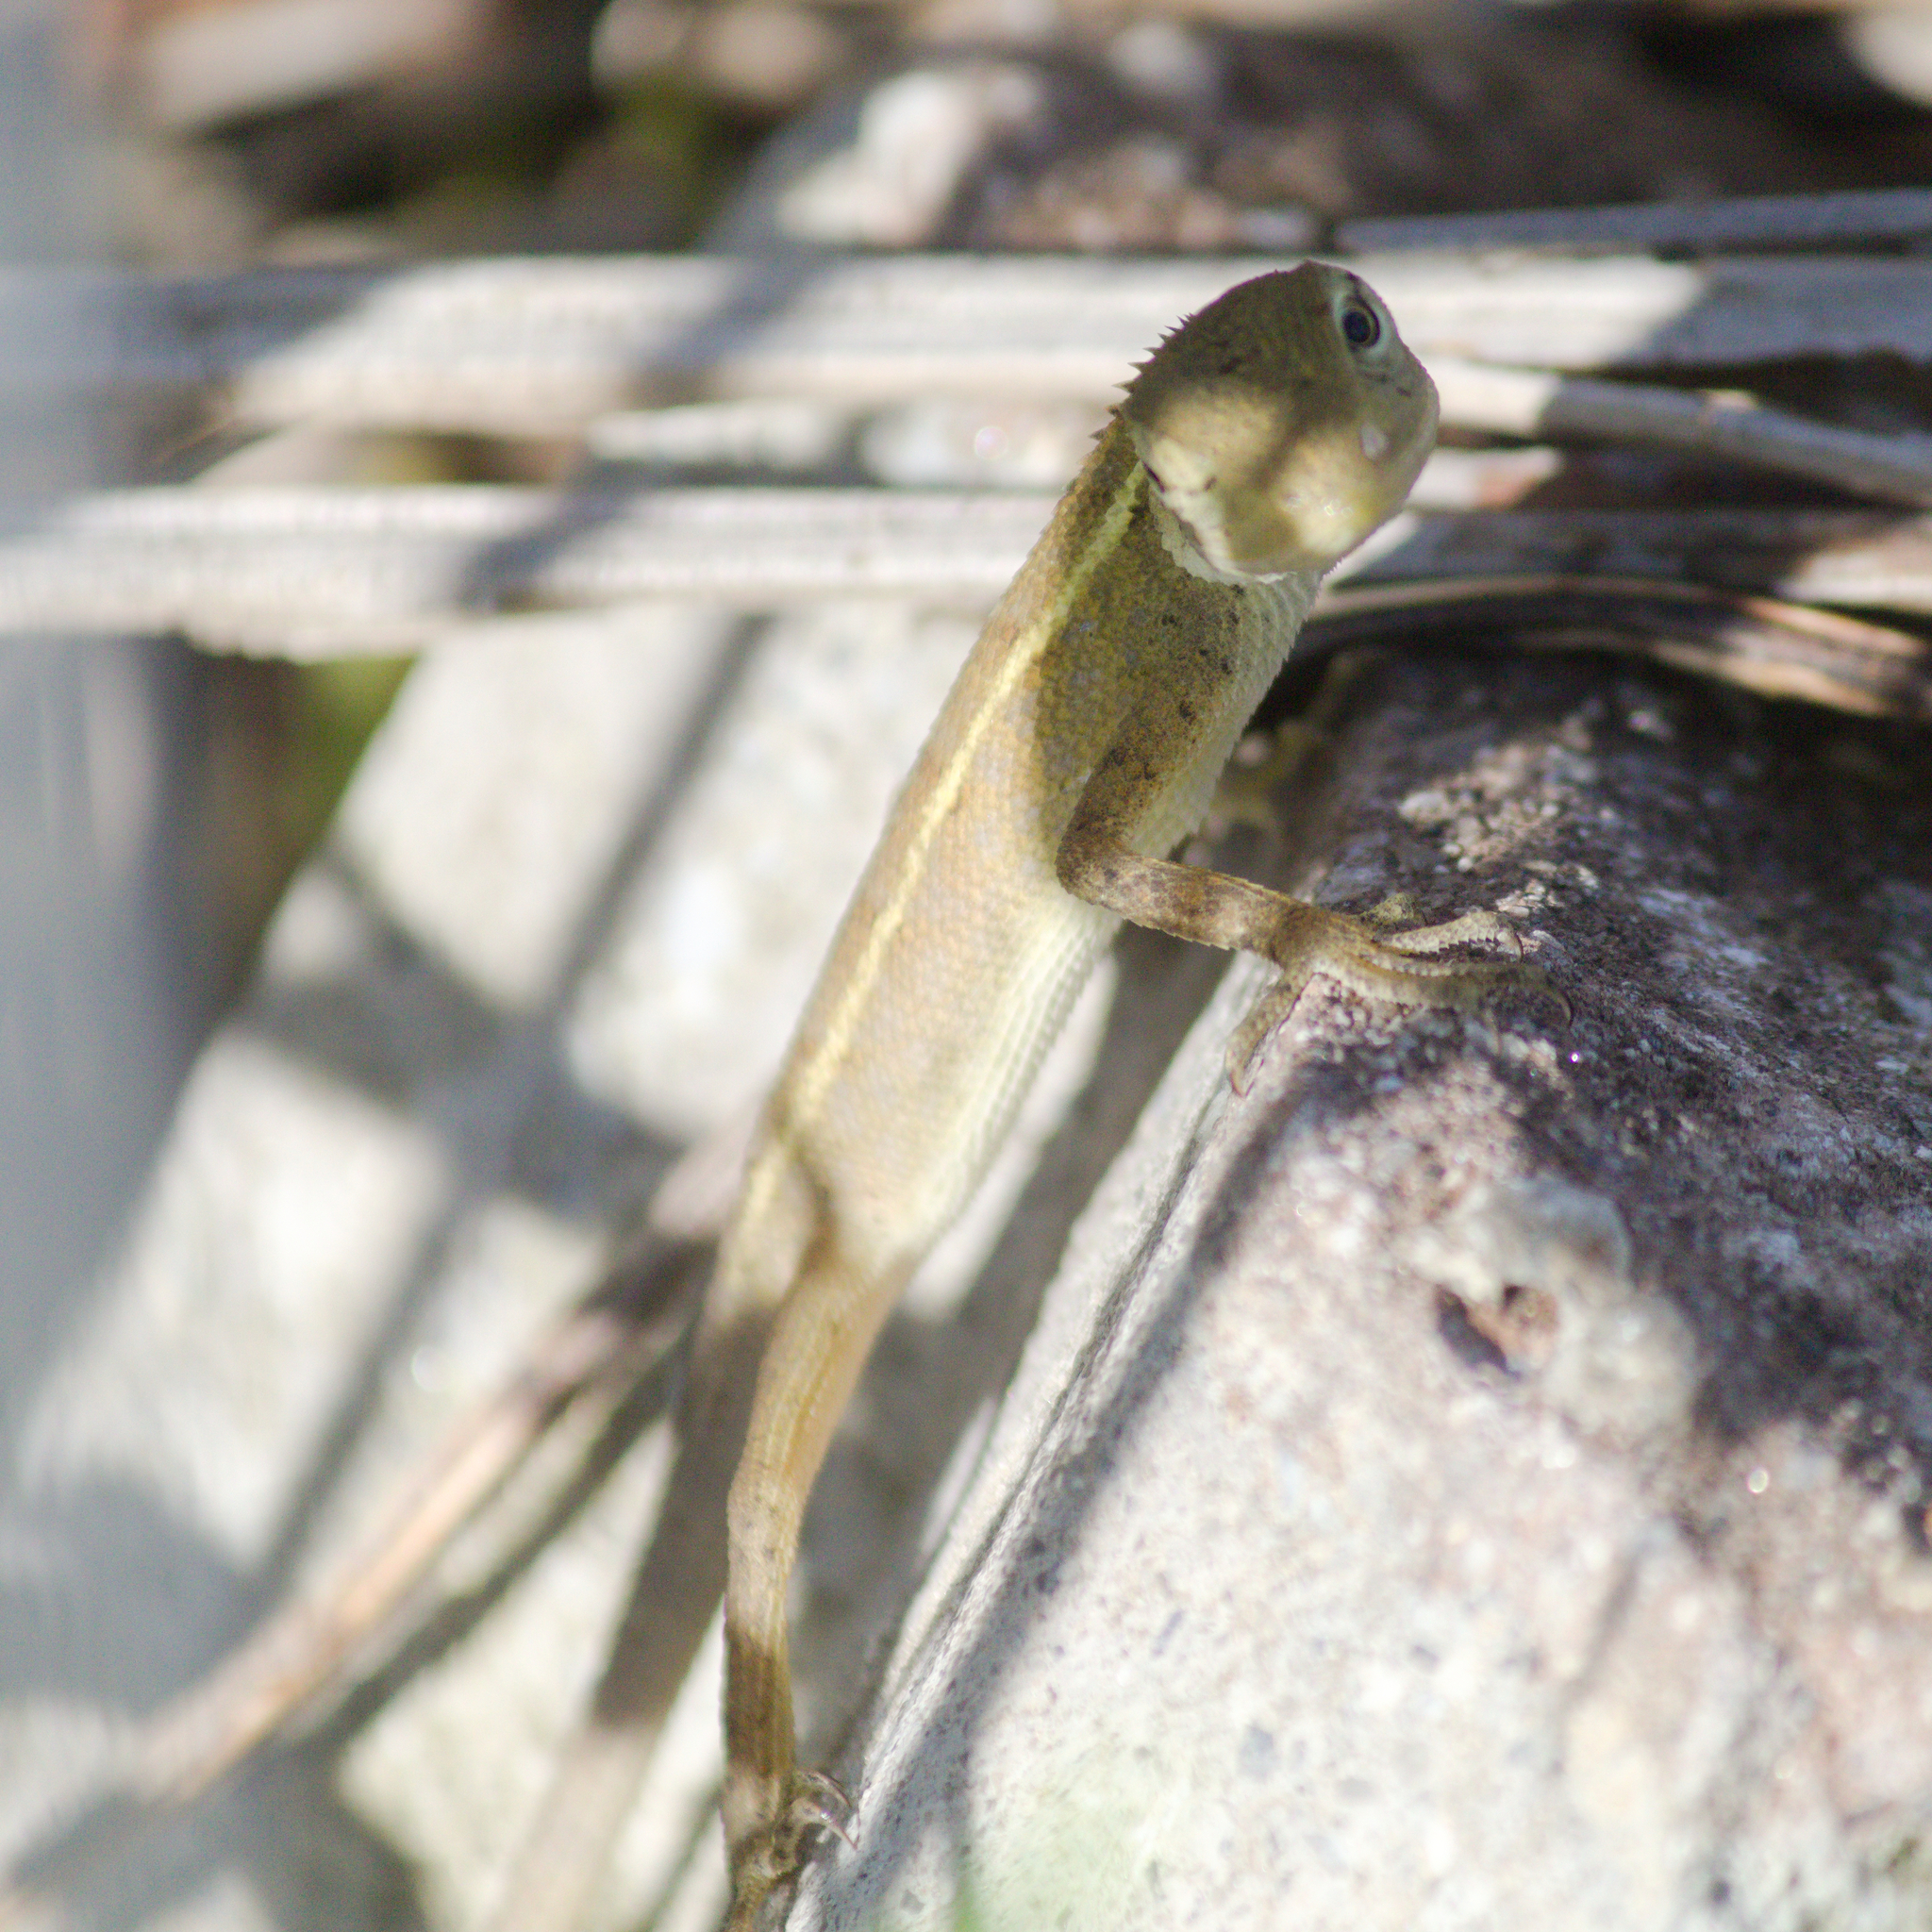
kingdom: Animalia
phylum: Chordata
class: Squamata
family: Agamidae
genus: Calotes
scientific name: Calotes versicolor
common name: Oriental garden lizard
